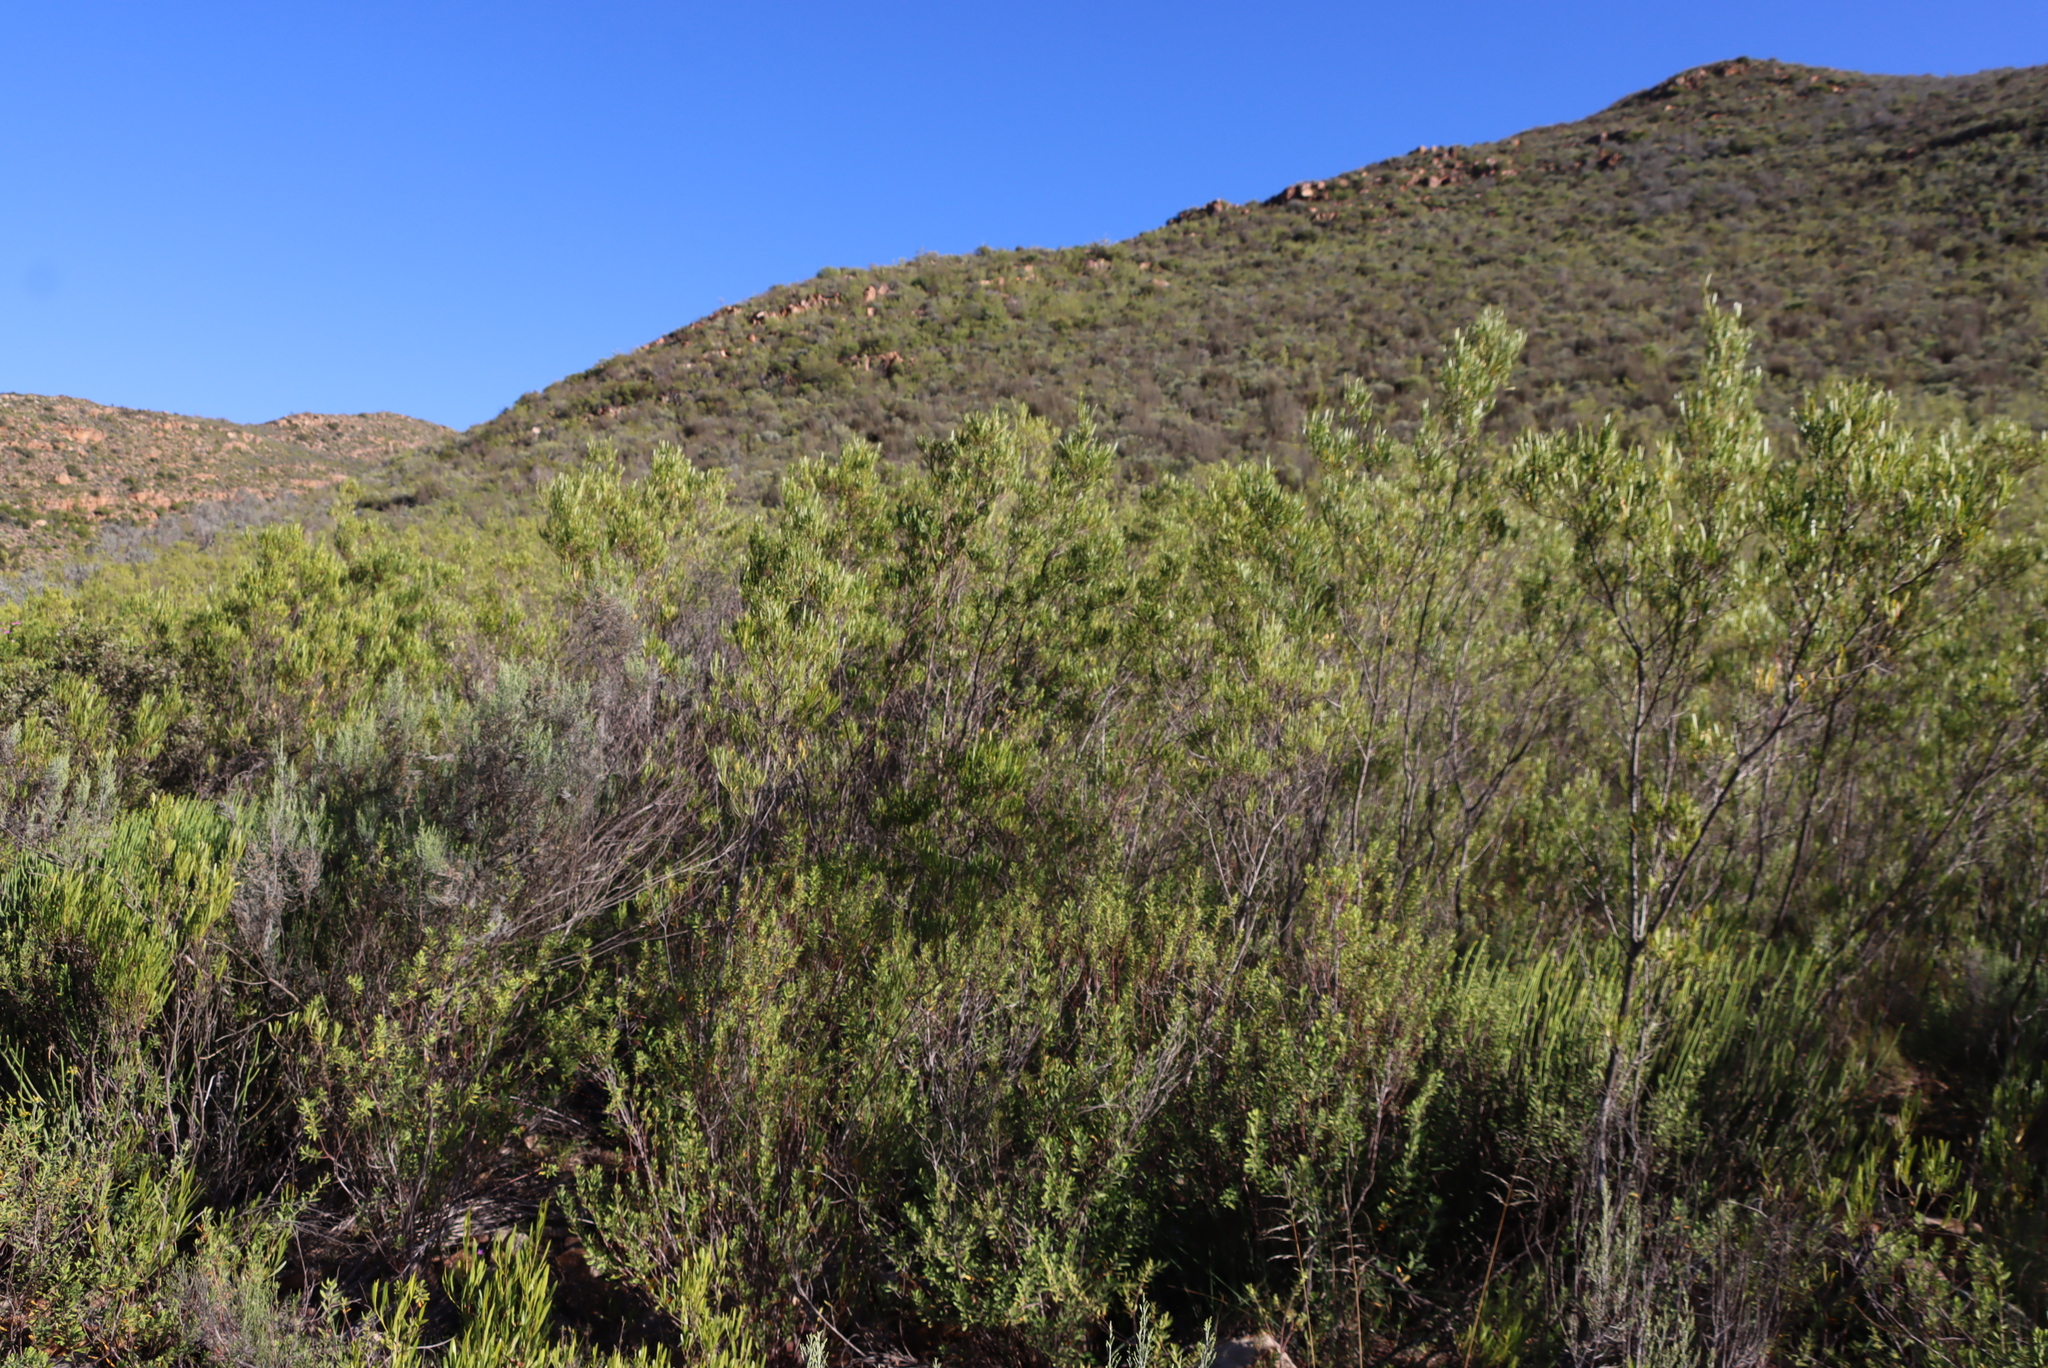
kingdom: Plantae
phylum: Tracheophyta
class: Magnoliopsida
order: Sapindales
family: Sapindaceae
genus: Dodonaea
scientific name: Dodonaea viscosa
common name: Hopbush
